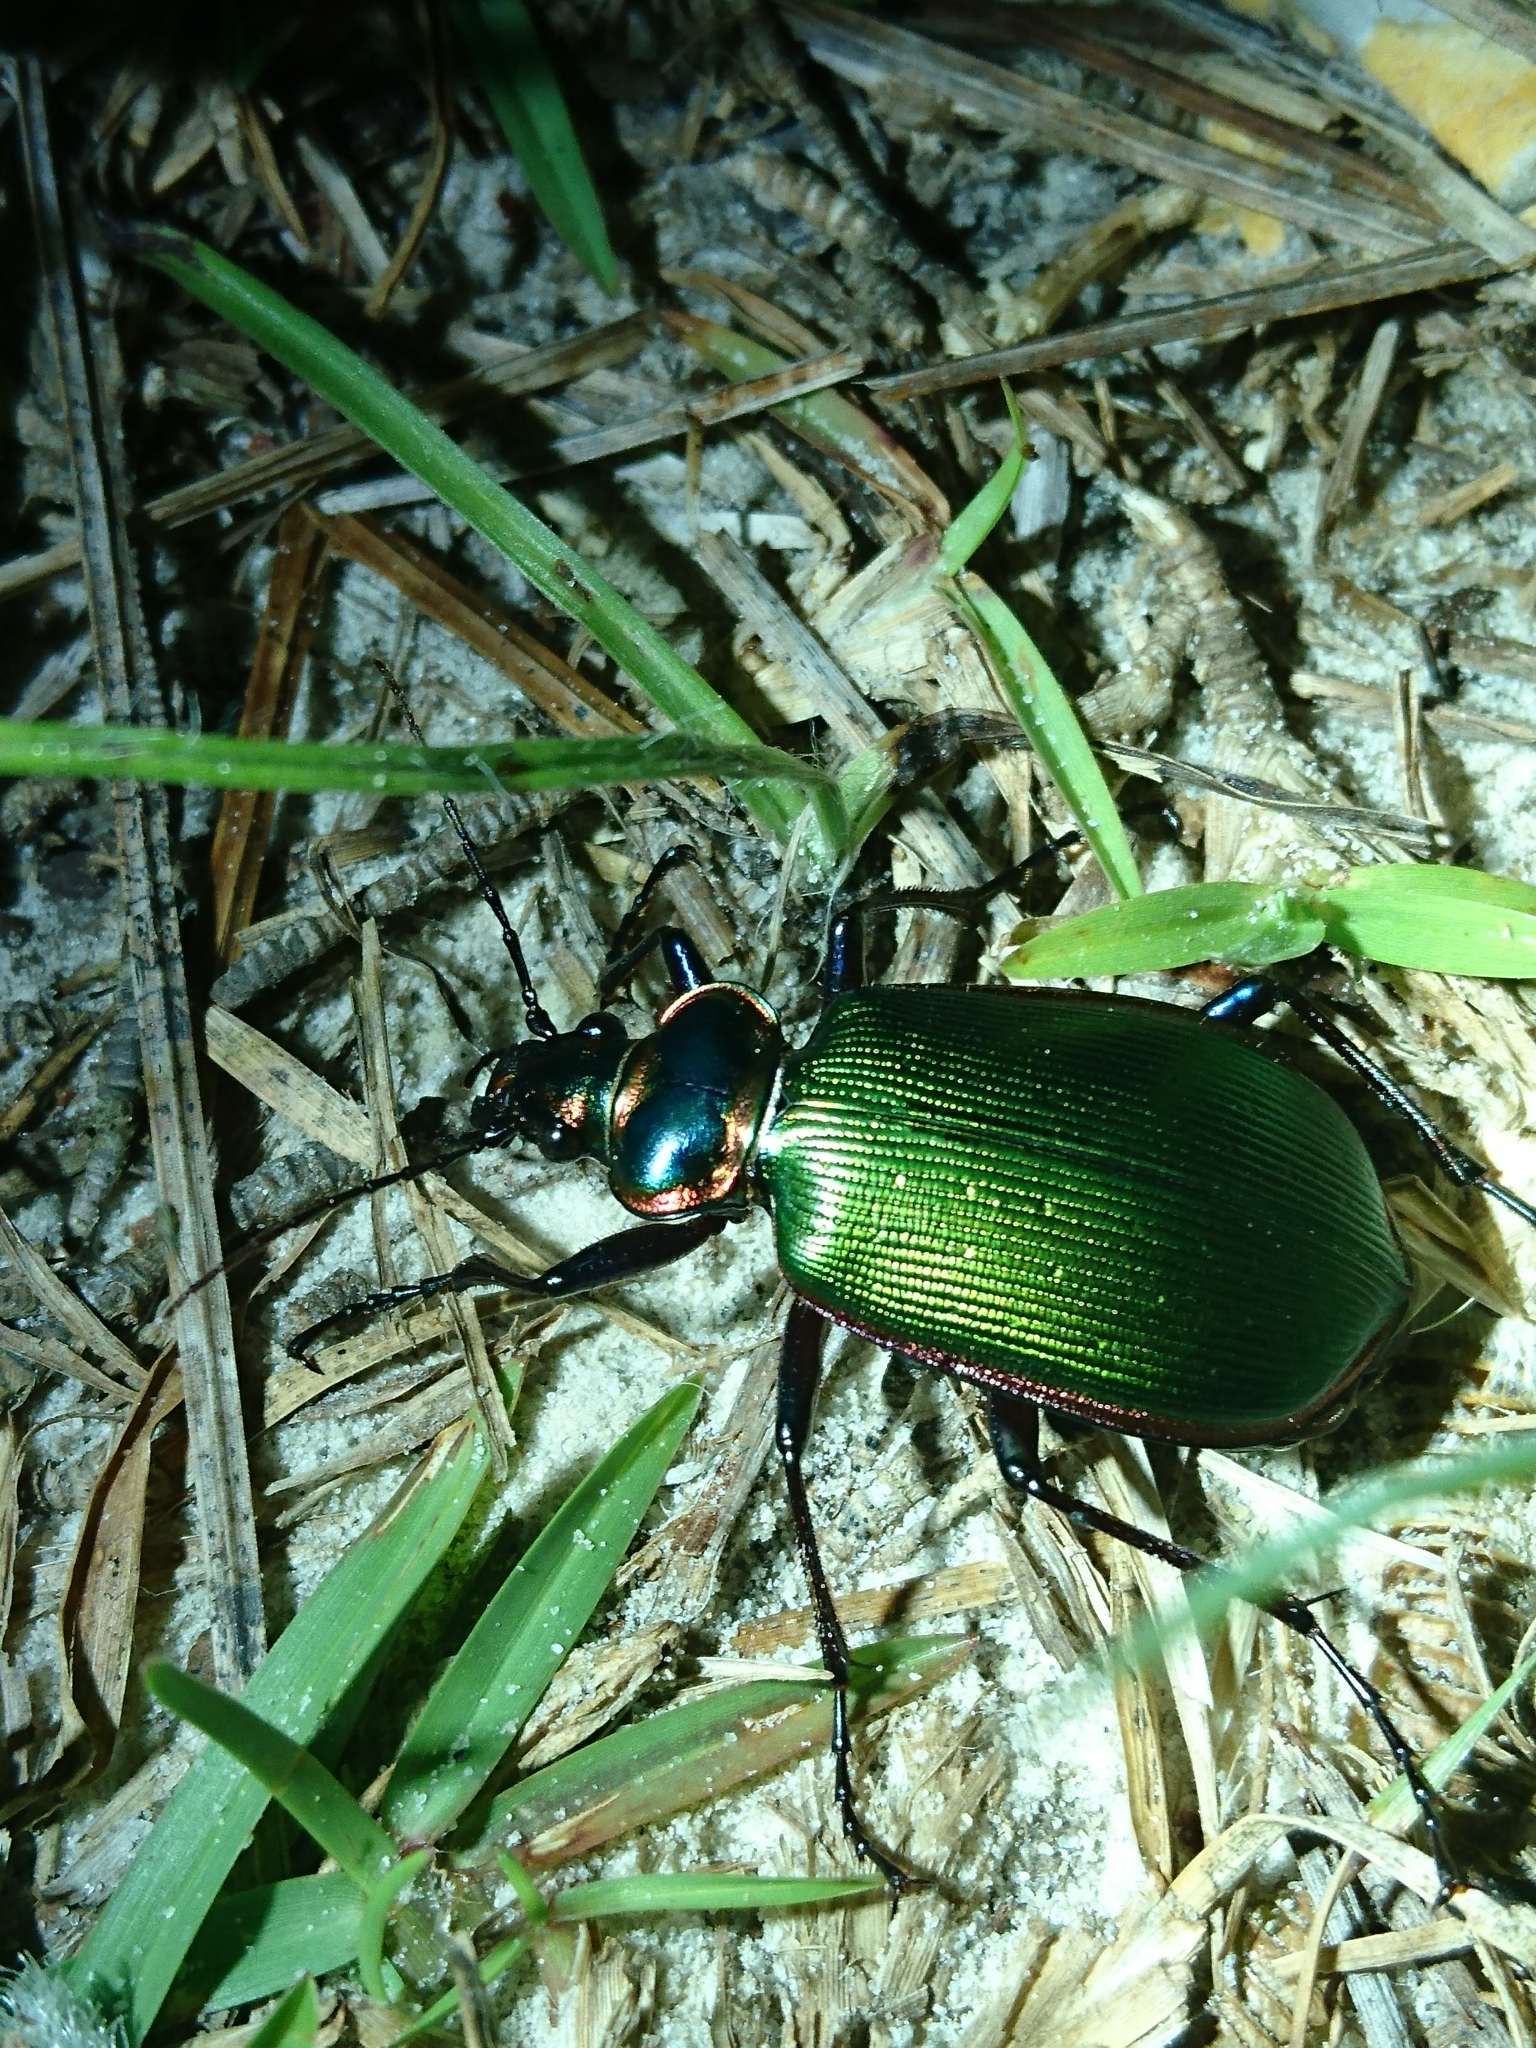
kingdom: Animalia
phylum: Arthropoda
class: Insecta
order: Coleoptera
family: Carabidae
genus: Calosoma
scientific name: Calosoma scrutator
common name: Fiery searcher beetle
